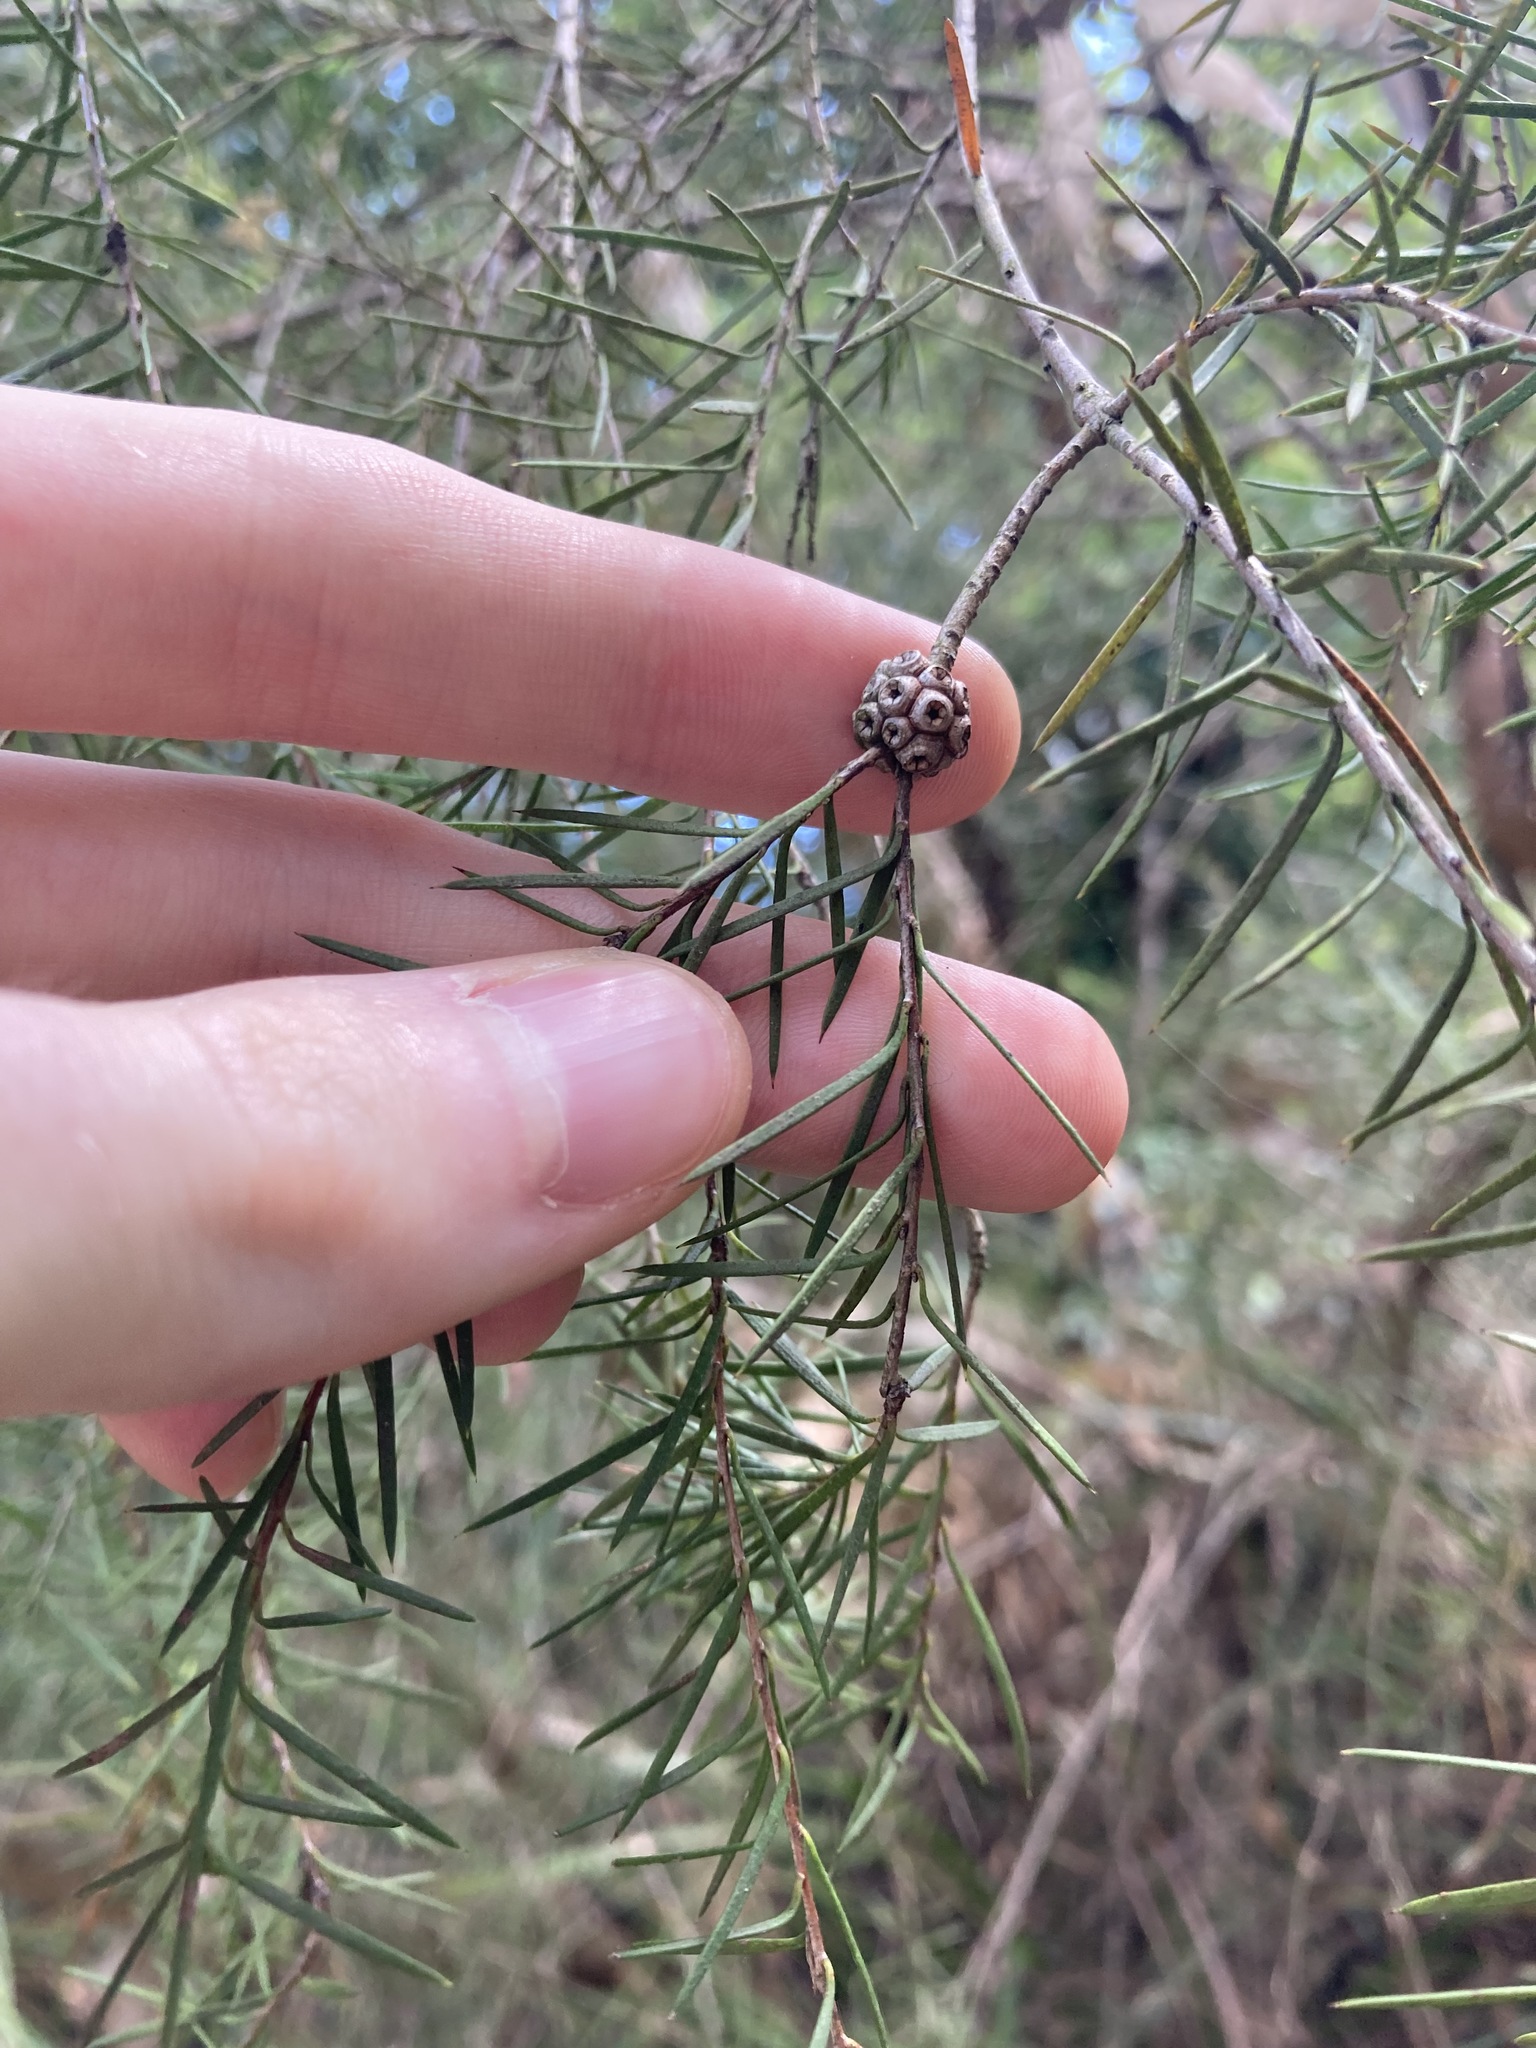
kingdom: Plantae
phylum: Tracheophyta
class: Magnoliopsida
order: Myrtales
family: Myrtaceae
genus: Melaleuca
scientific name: Melaleuca nodosa
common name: Prickly-leaf paperbark
